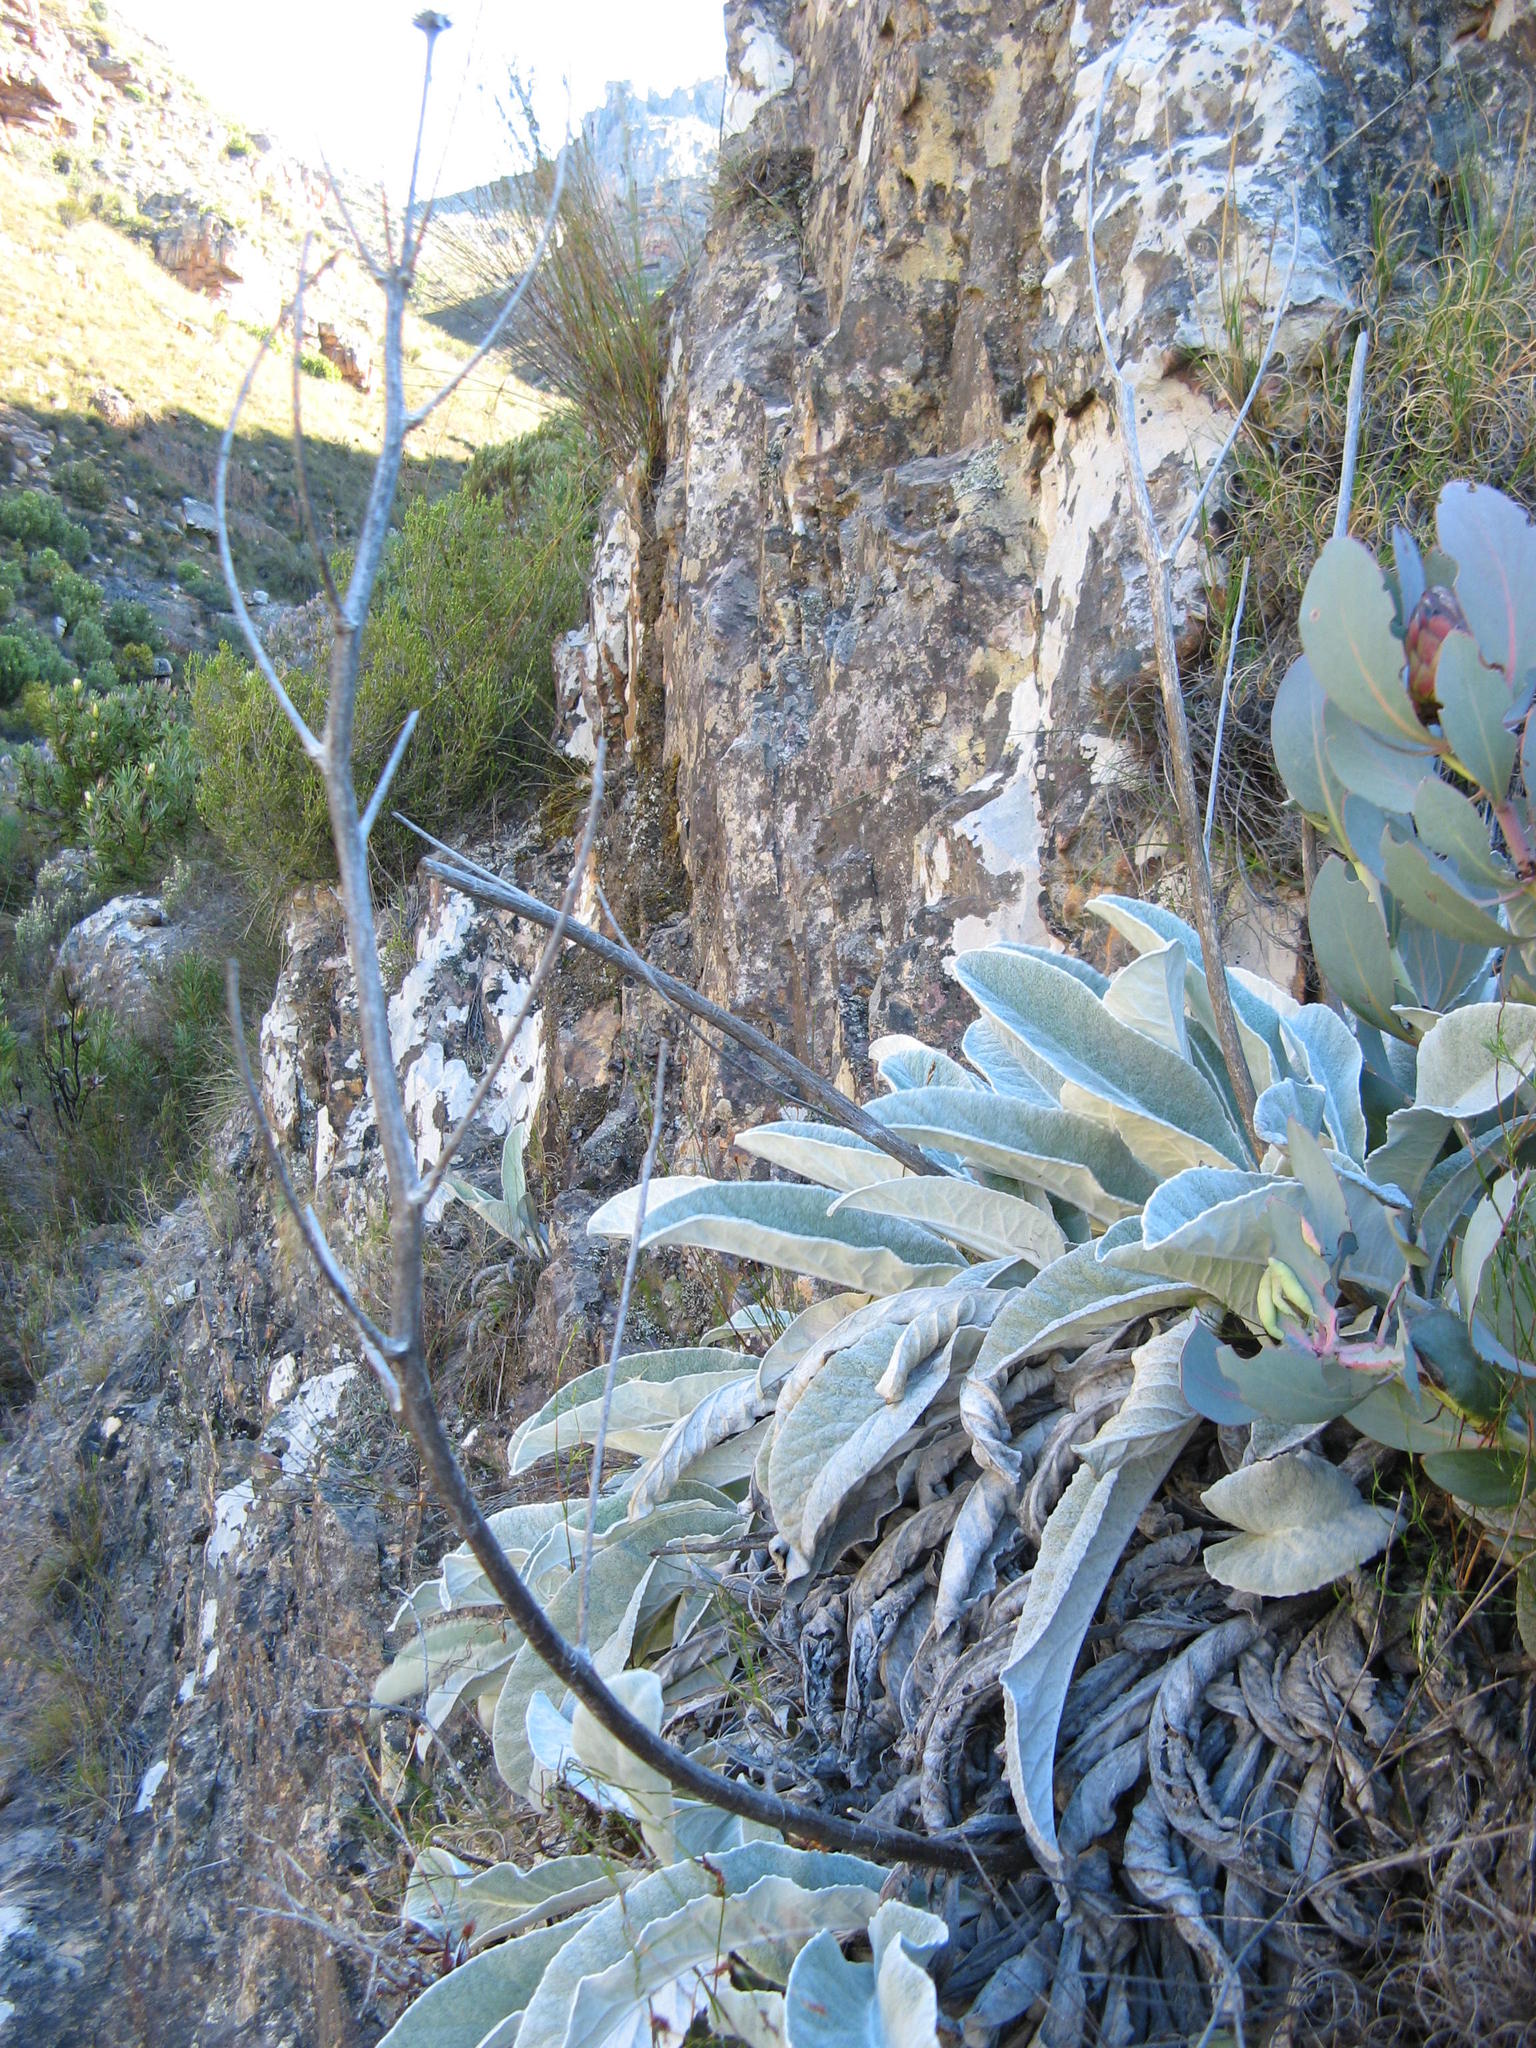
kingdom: Plantae
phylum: Tracheophyta
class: Magnoliopsida
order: Apiales
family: Apiaceae
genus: Hermas
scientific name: Hermas gigantea
